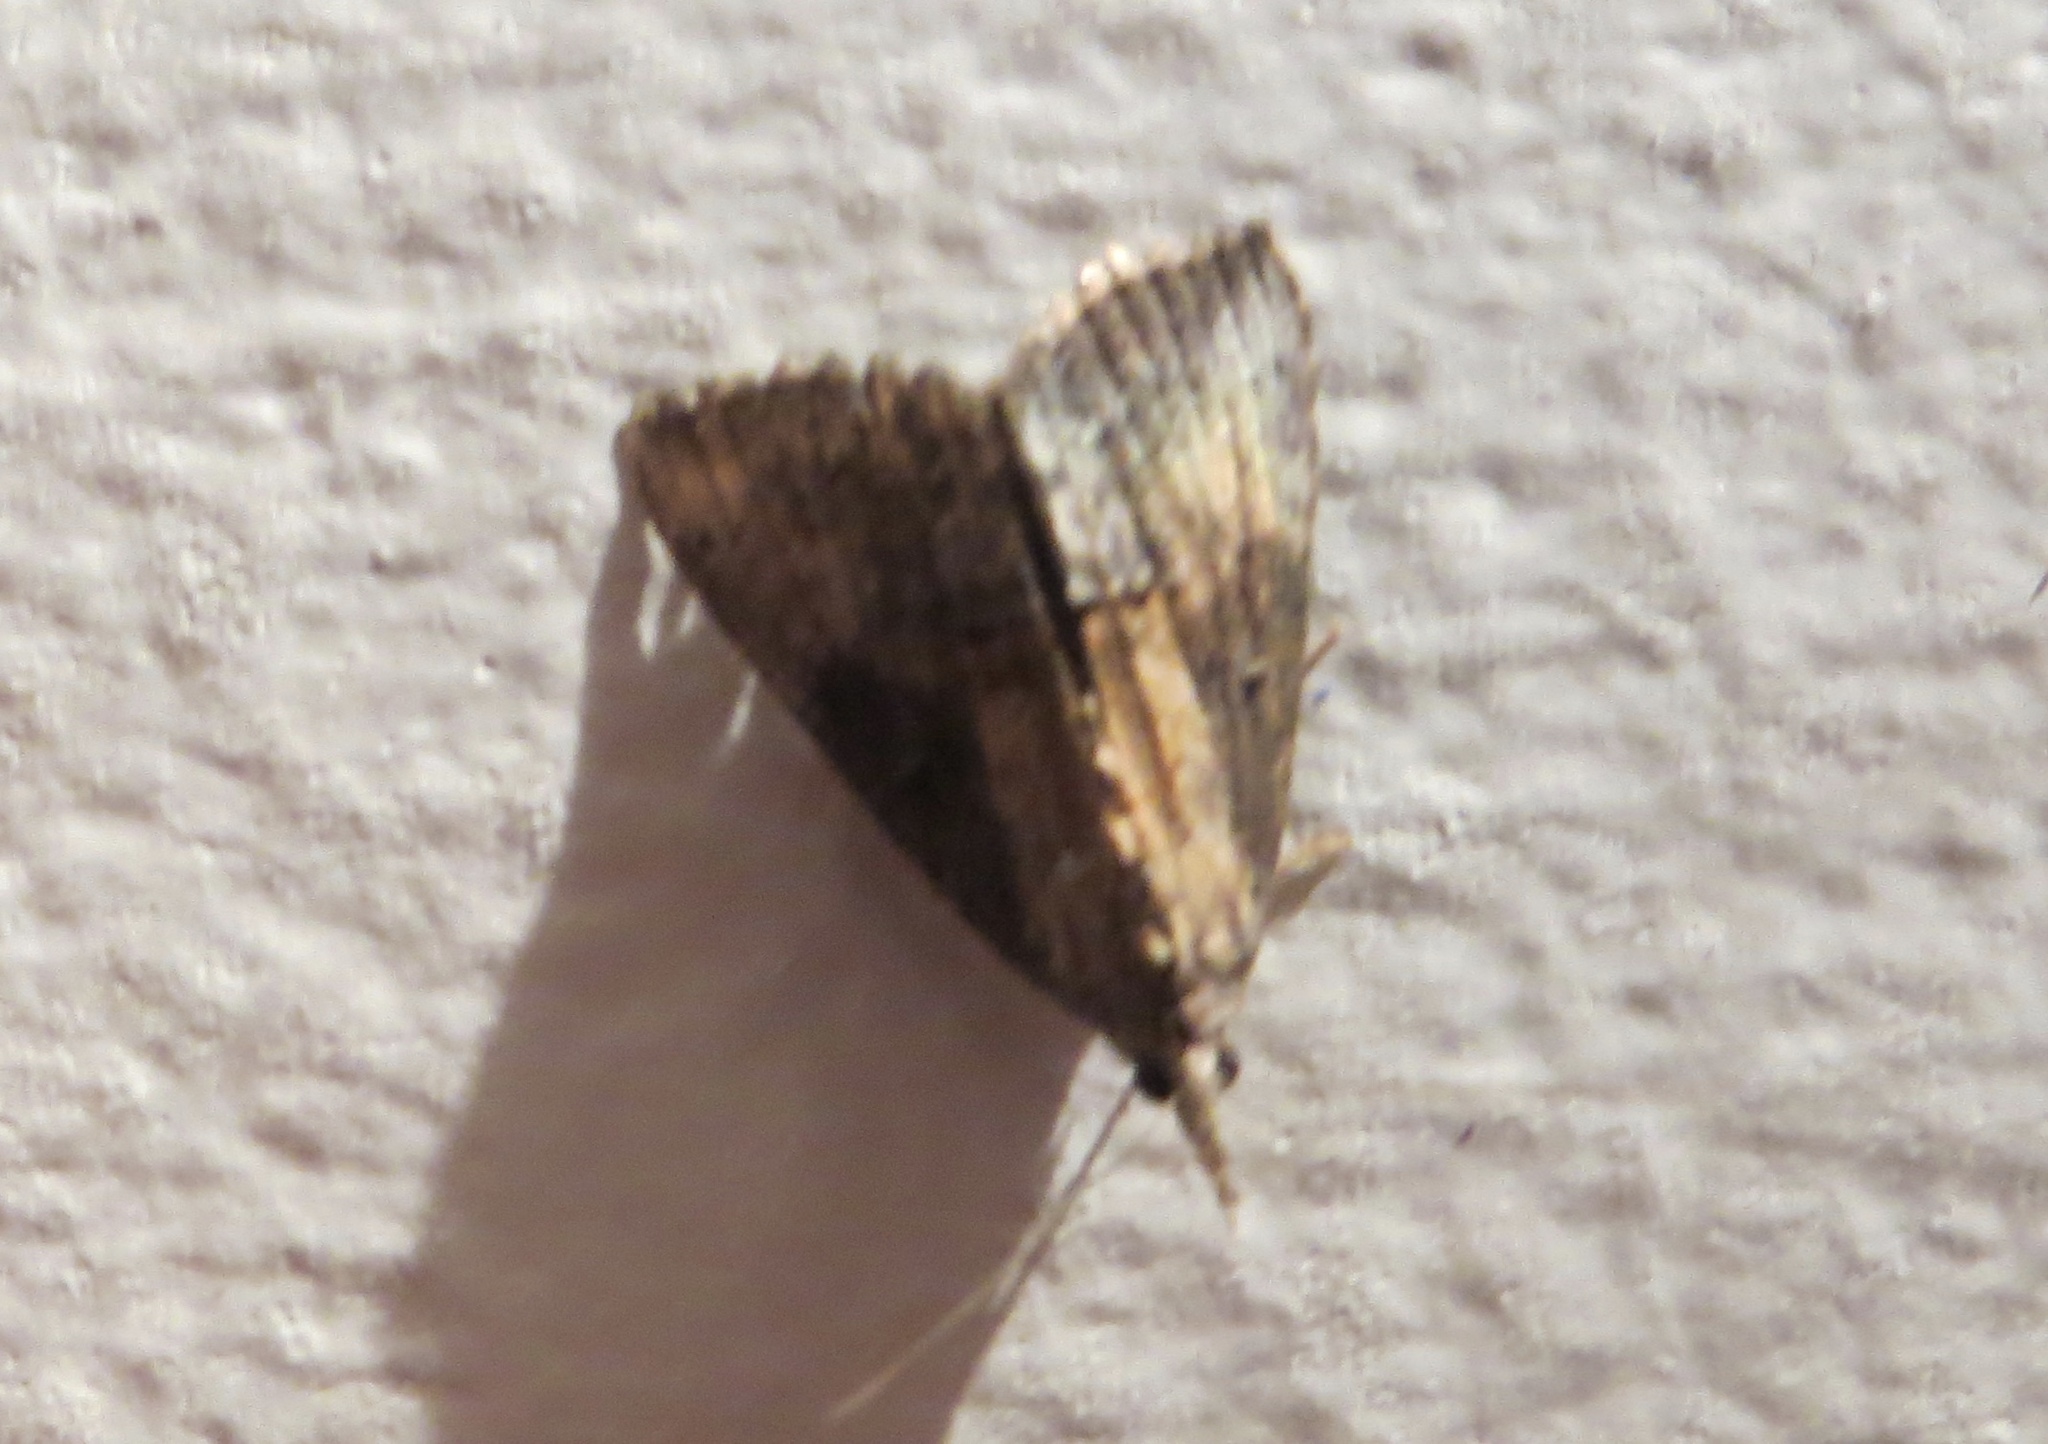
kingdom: Animalia
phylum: Arthropoda
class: Insecta
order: Lepidoptera
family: Erebidae
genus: Hypena
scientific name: Hypena scabra
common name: Green cloverworm
